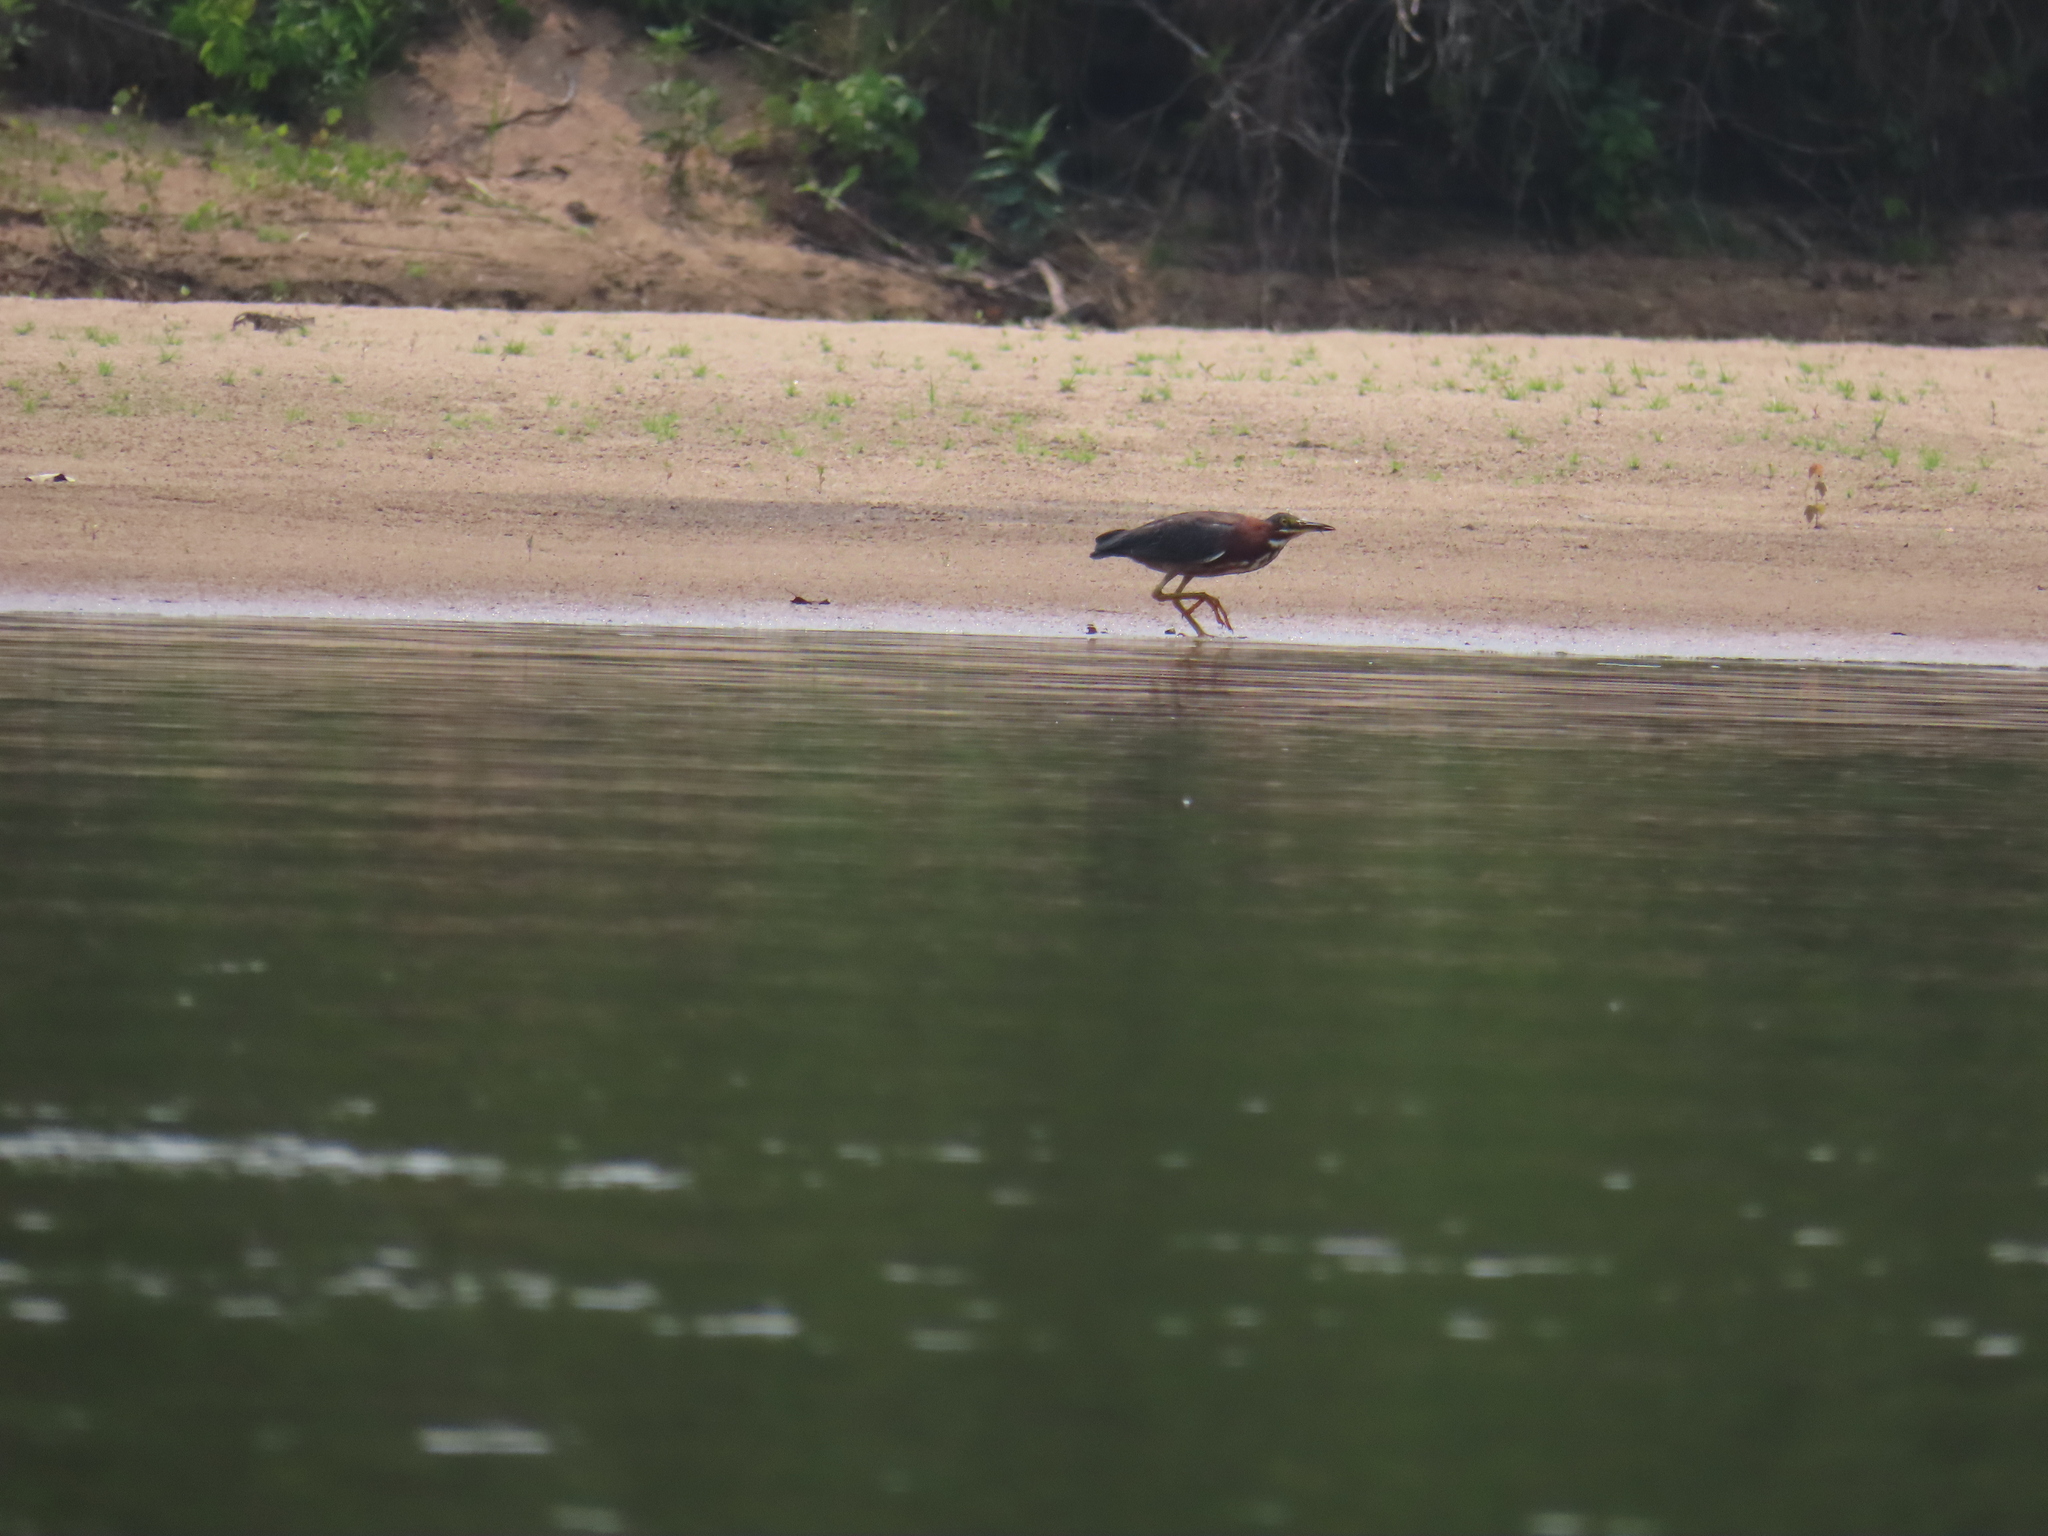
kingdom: Animalia
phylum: Chordata
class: Aves
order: Pelecaniformes
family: Ardeidae
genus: Butorides
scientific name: Butorides virescens
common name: Green heron
